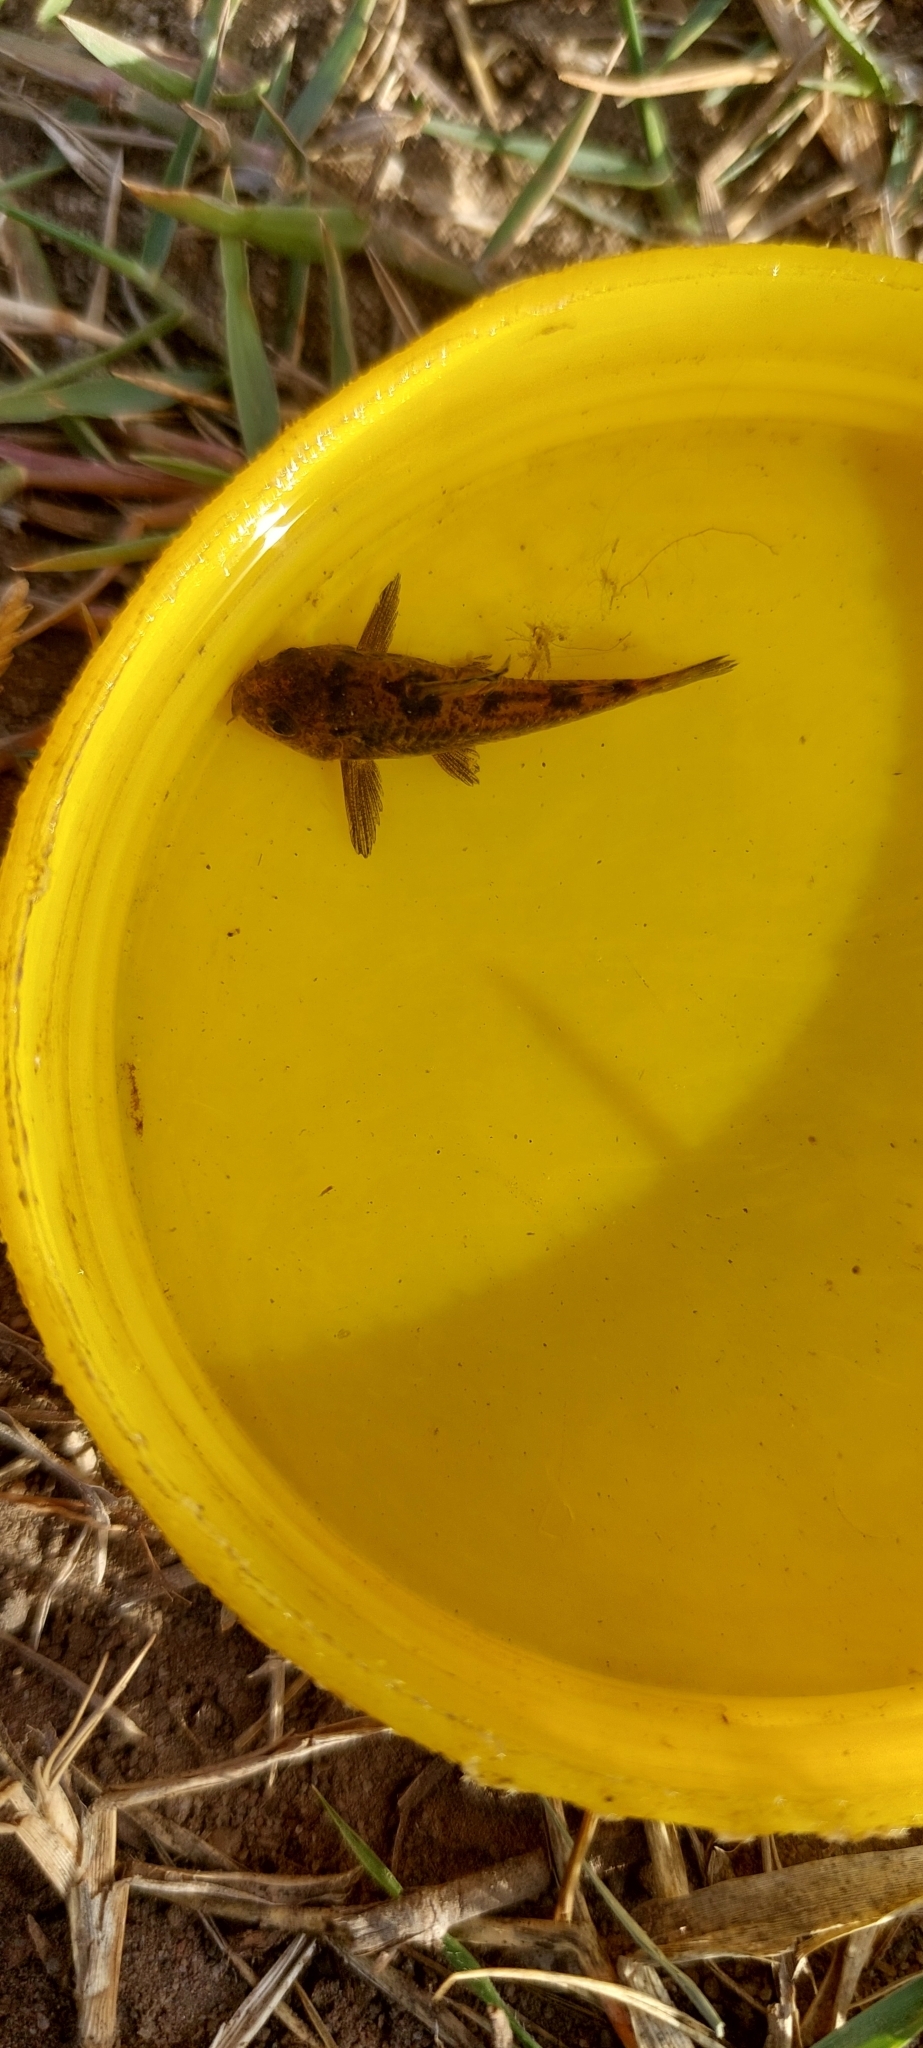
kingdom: Animalia
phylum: Chordata
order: Siluriformes
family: Callichthyidae
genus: Corydoras
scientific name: Corydoras paleatus
